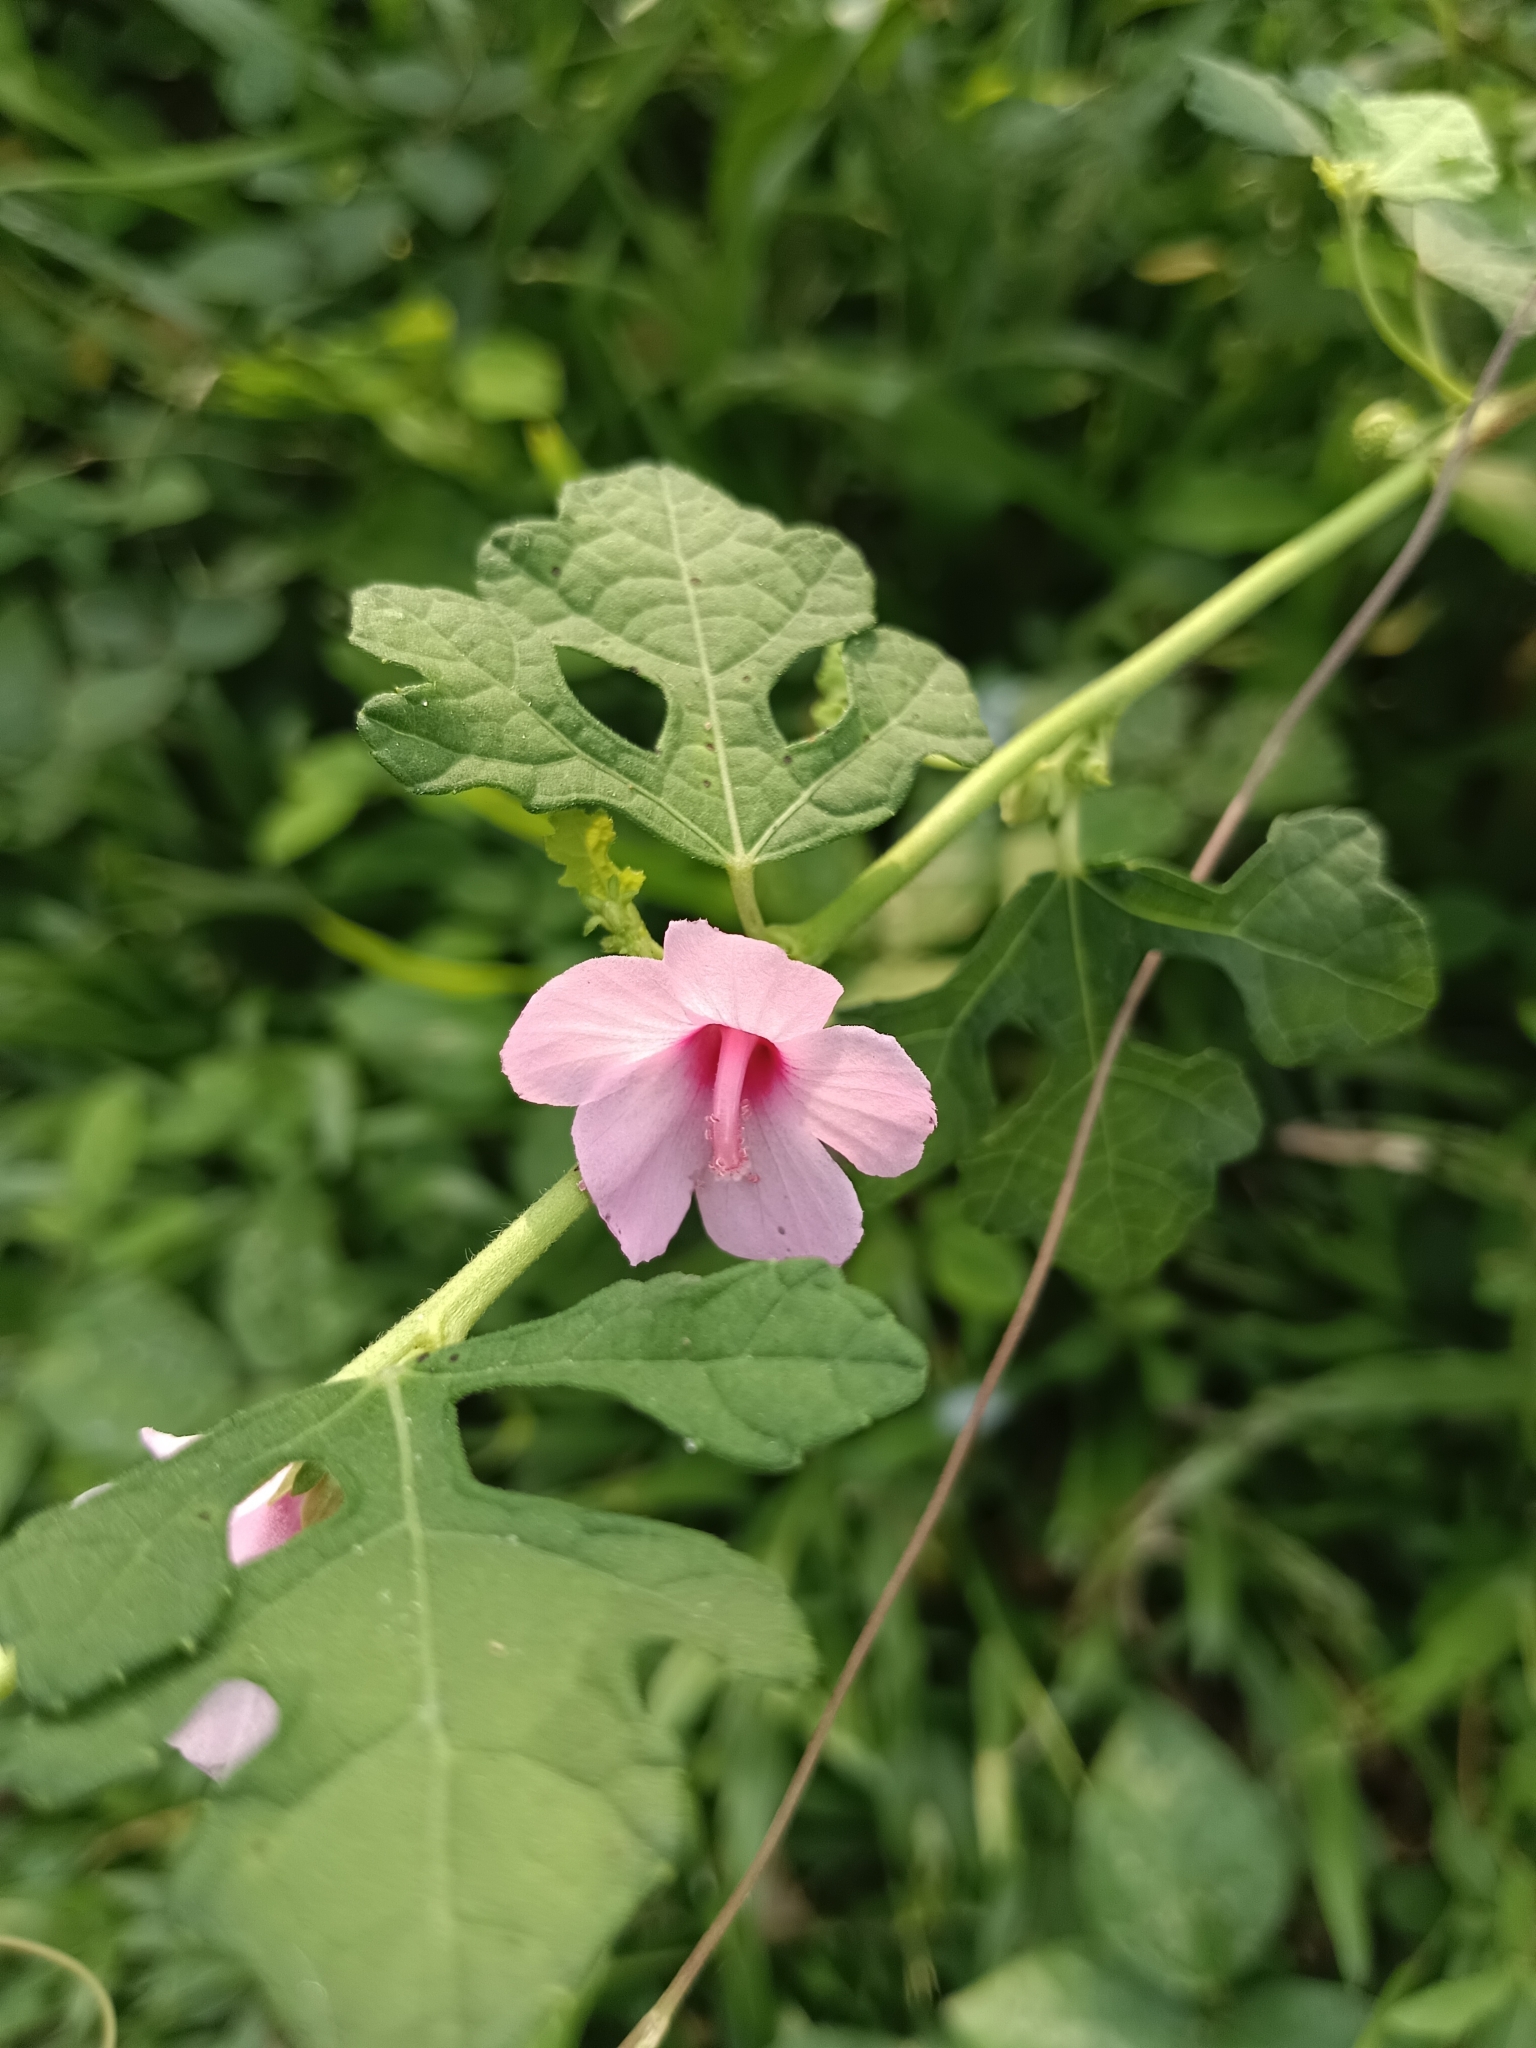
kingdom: Plantae
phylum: Tracheophyta
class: Magnoliopsida
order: Malvales
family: Malvaceae
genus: Urena
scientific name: Urena procumbens
